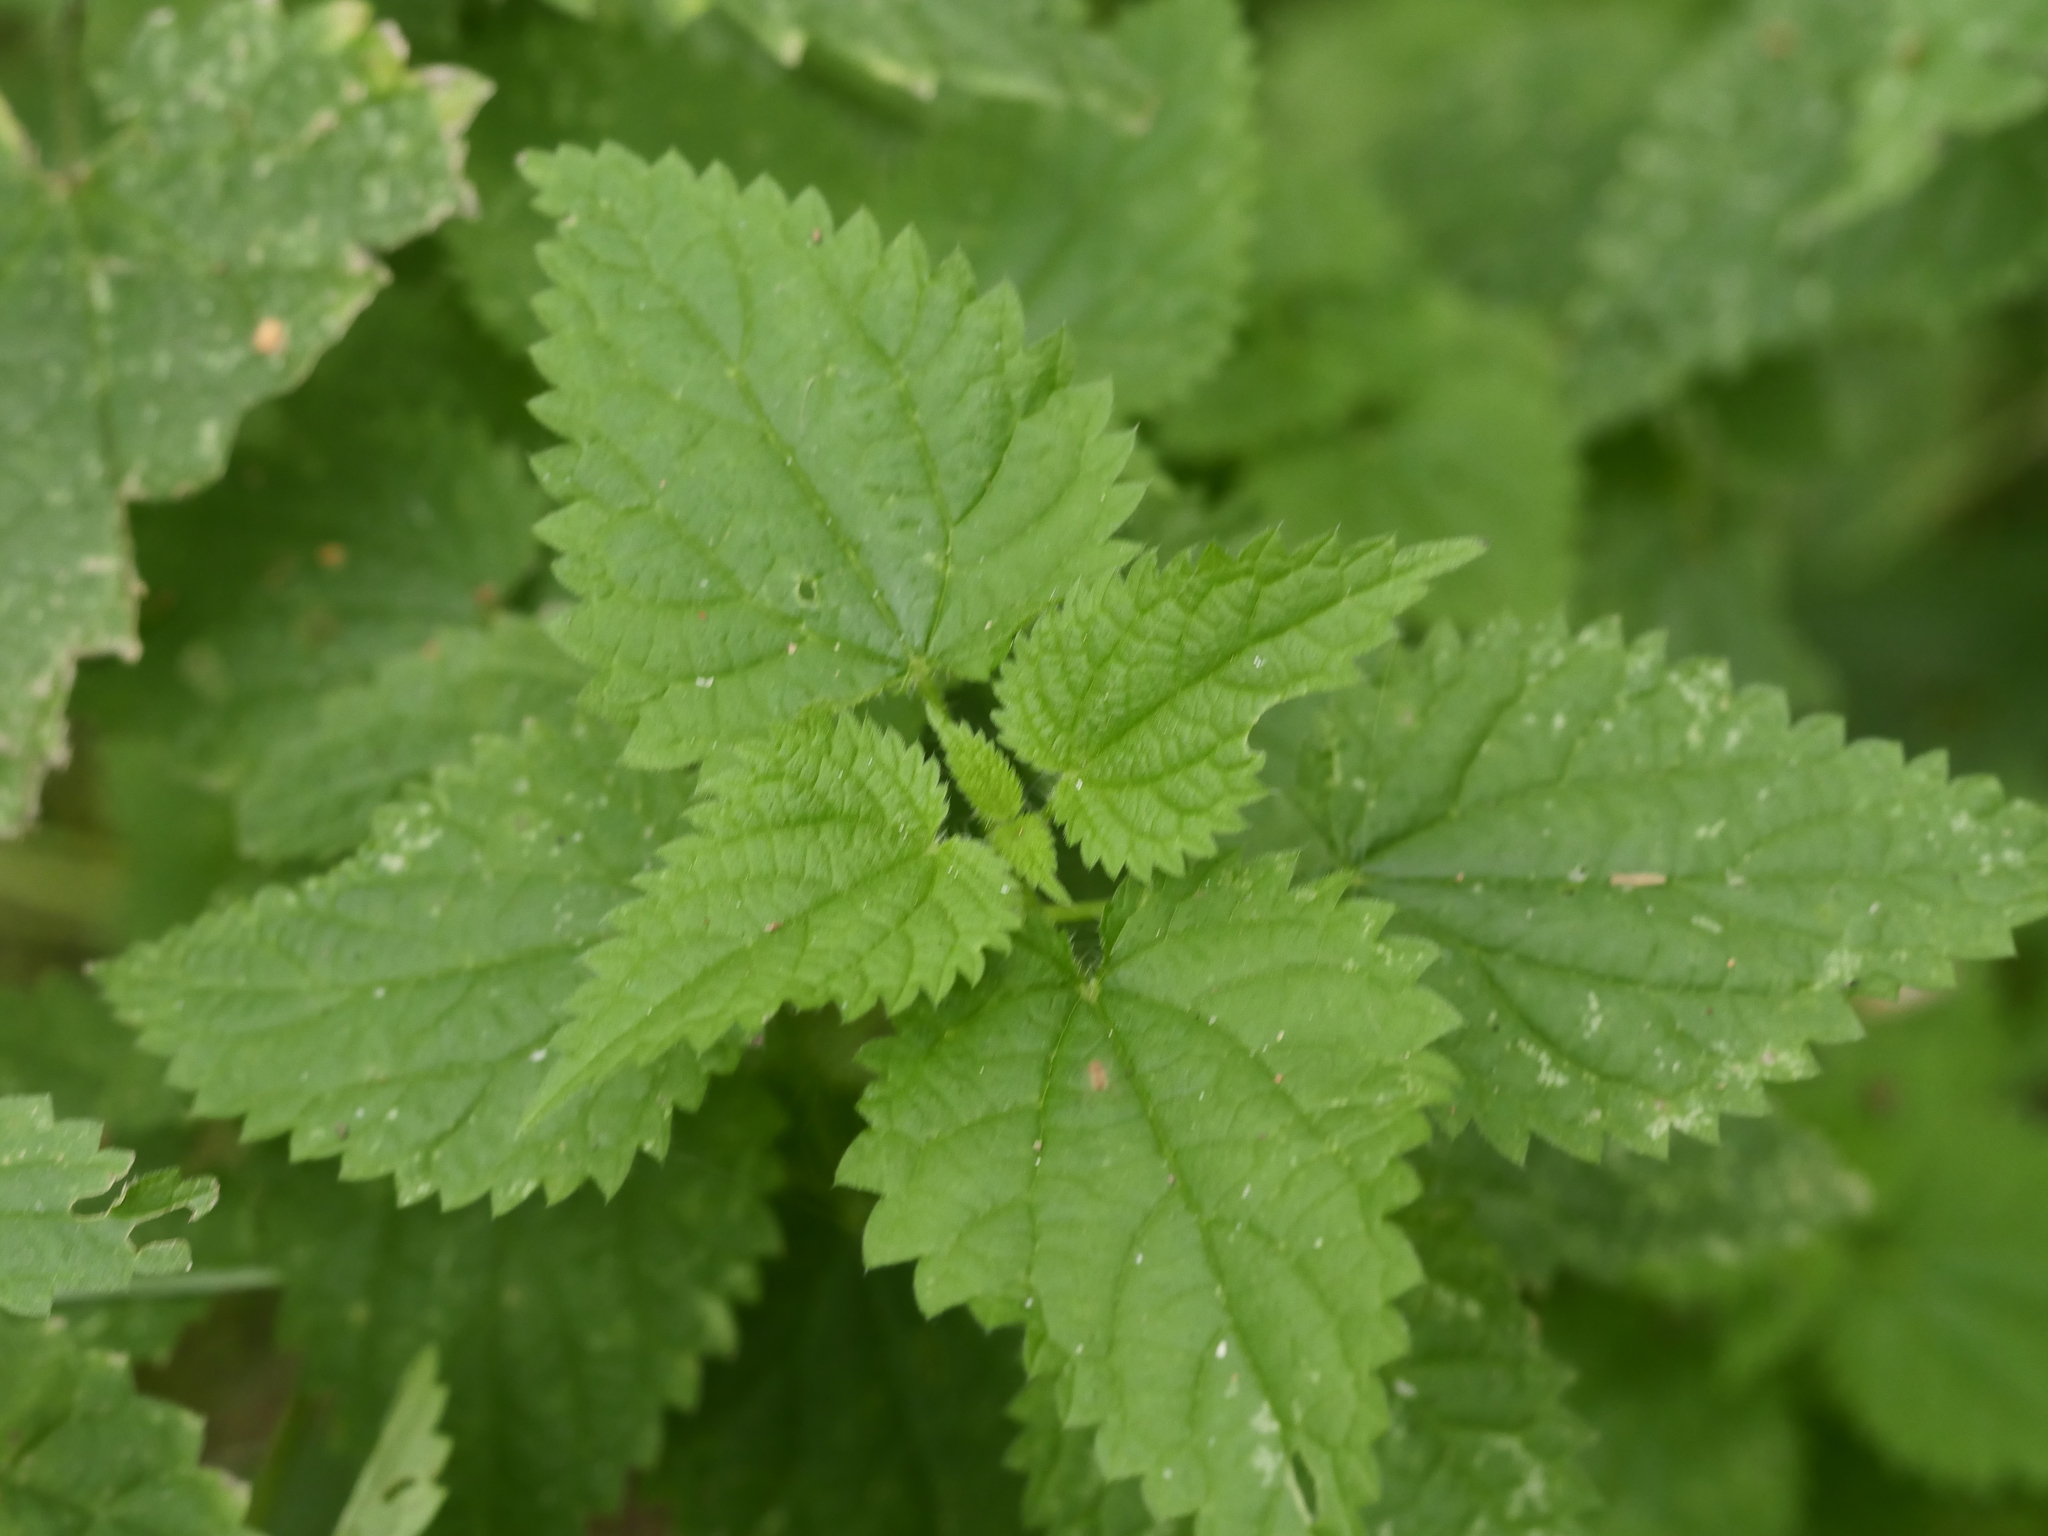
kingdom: Plantae
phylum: Tracheophyta
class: Magnoliopsida
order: Rosales
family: Urticaceae
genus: Urtica
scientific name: Urtica dioica
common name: Common nettle
